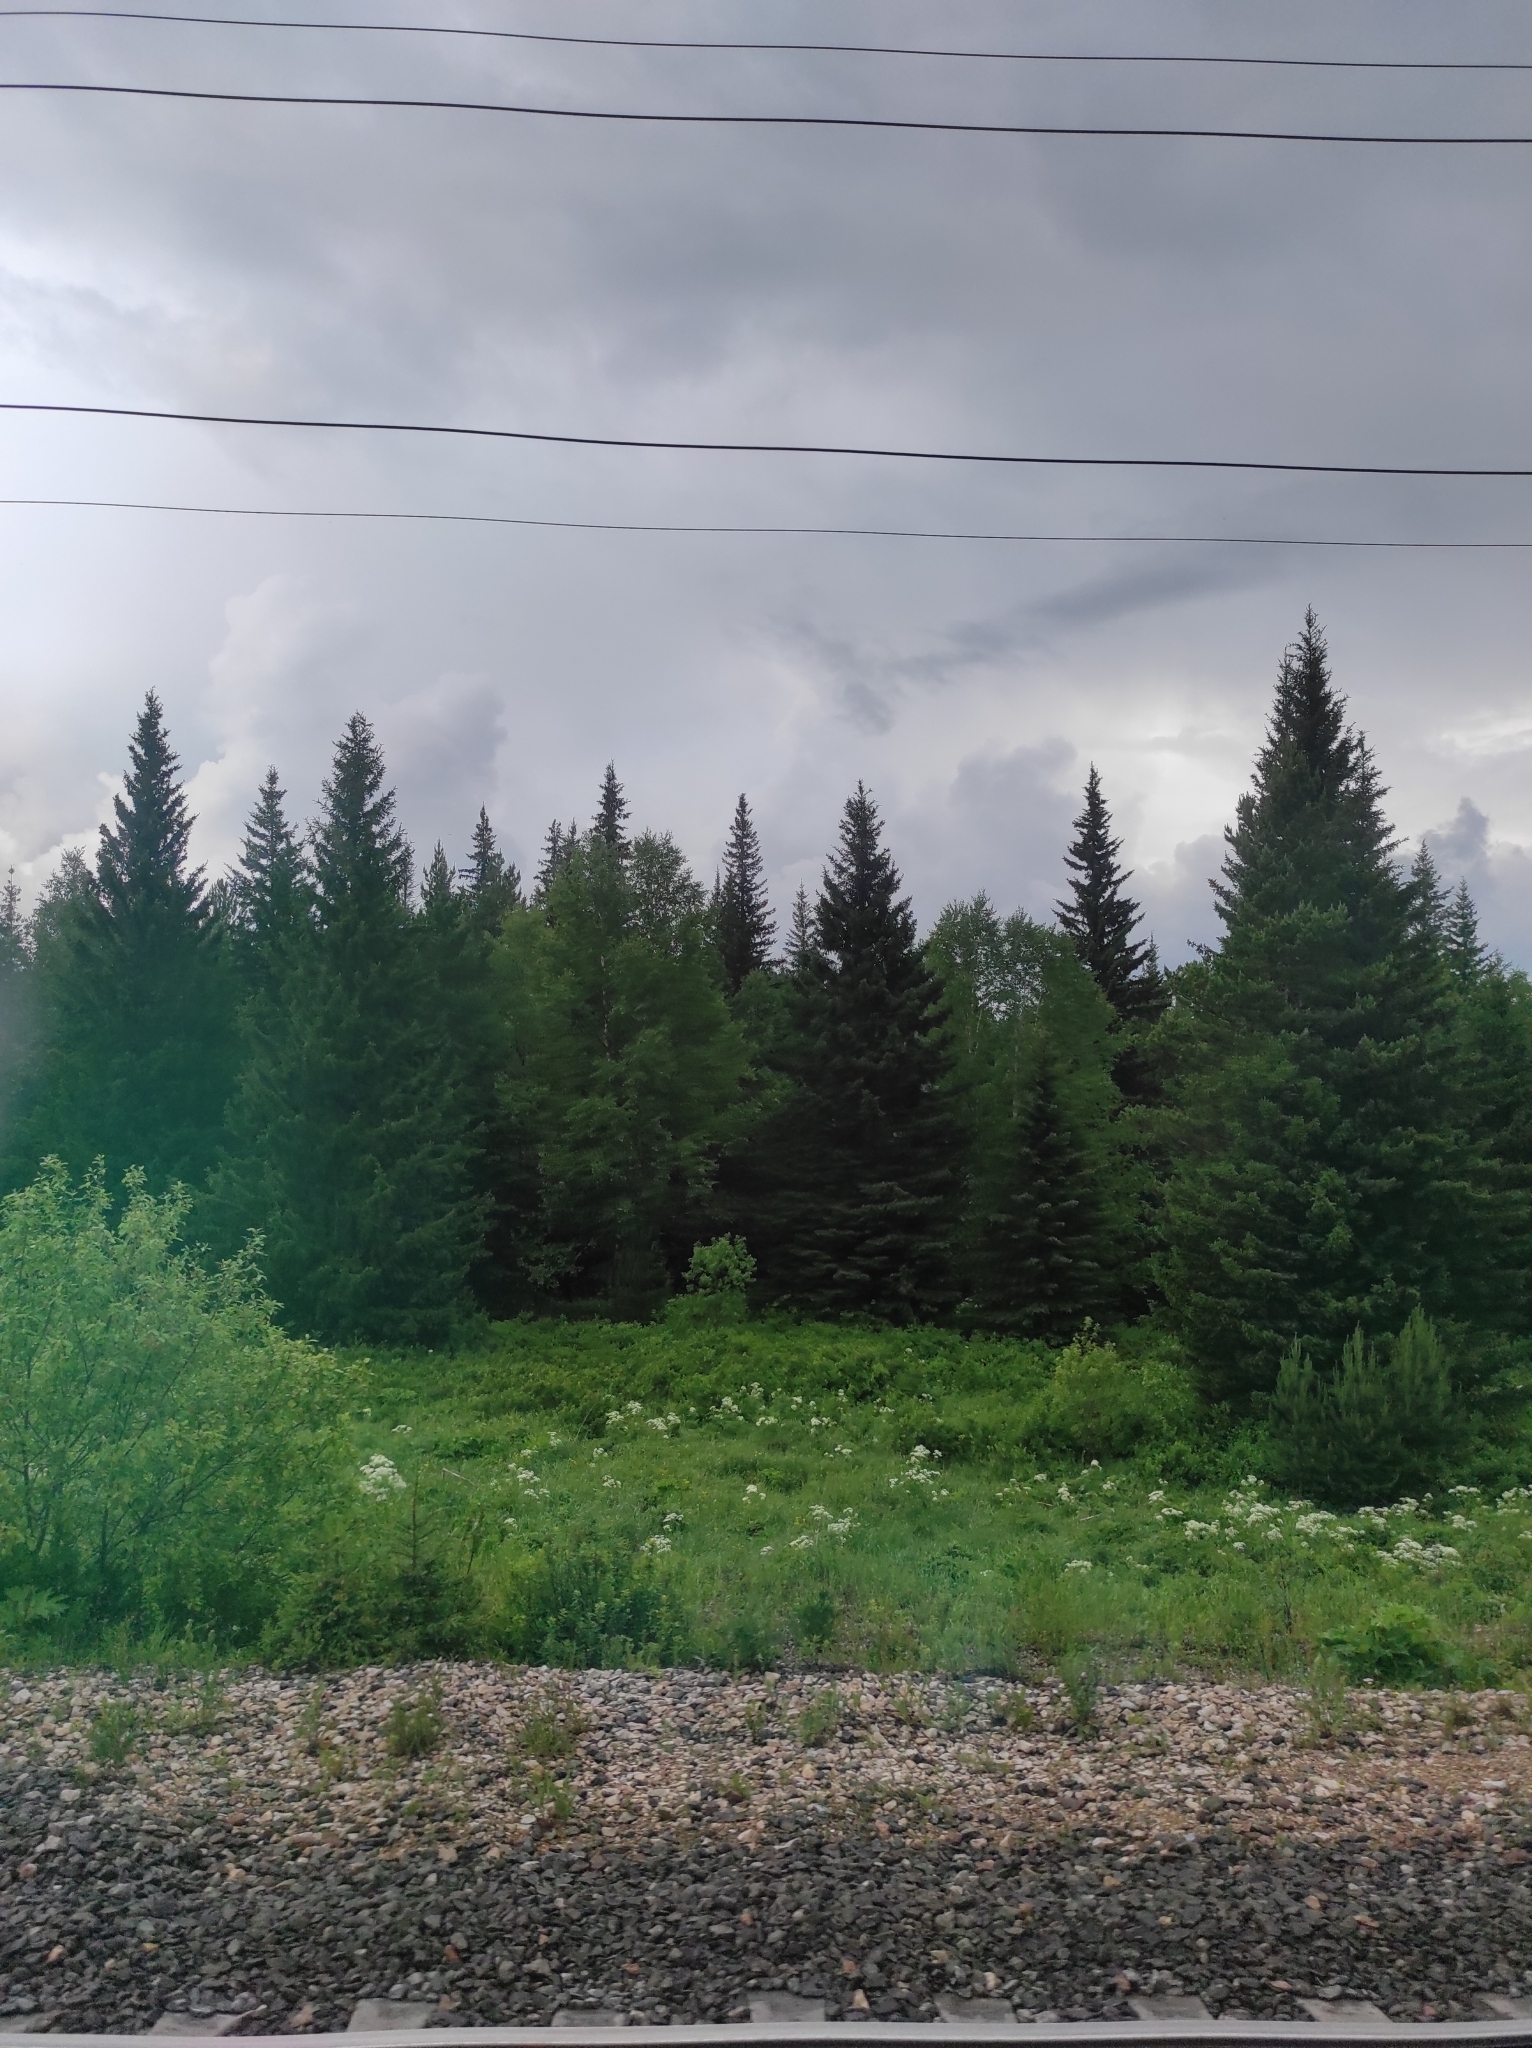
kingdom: Plantae
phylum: Tracheophyta
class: Pinopsida
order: Pinales
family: Pinaceae
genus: Picea
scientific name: Picea obovata
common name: Siberian spruce
